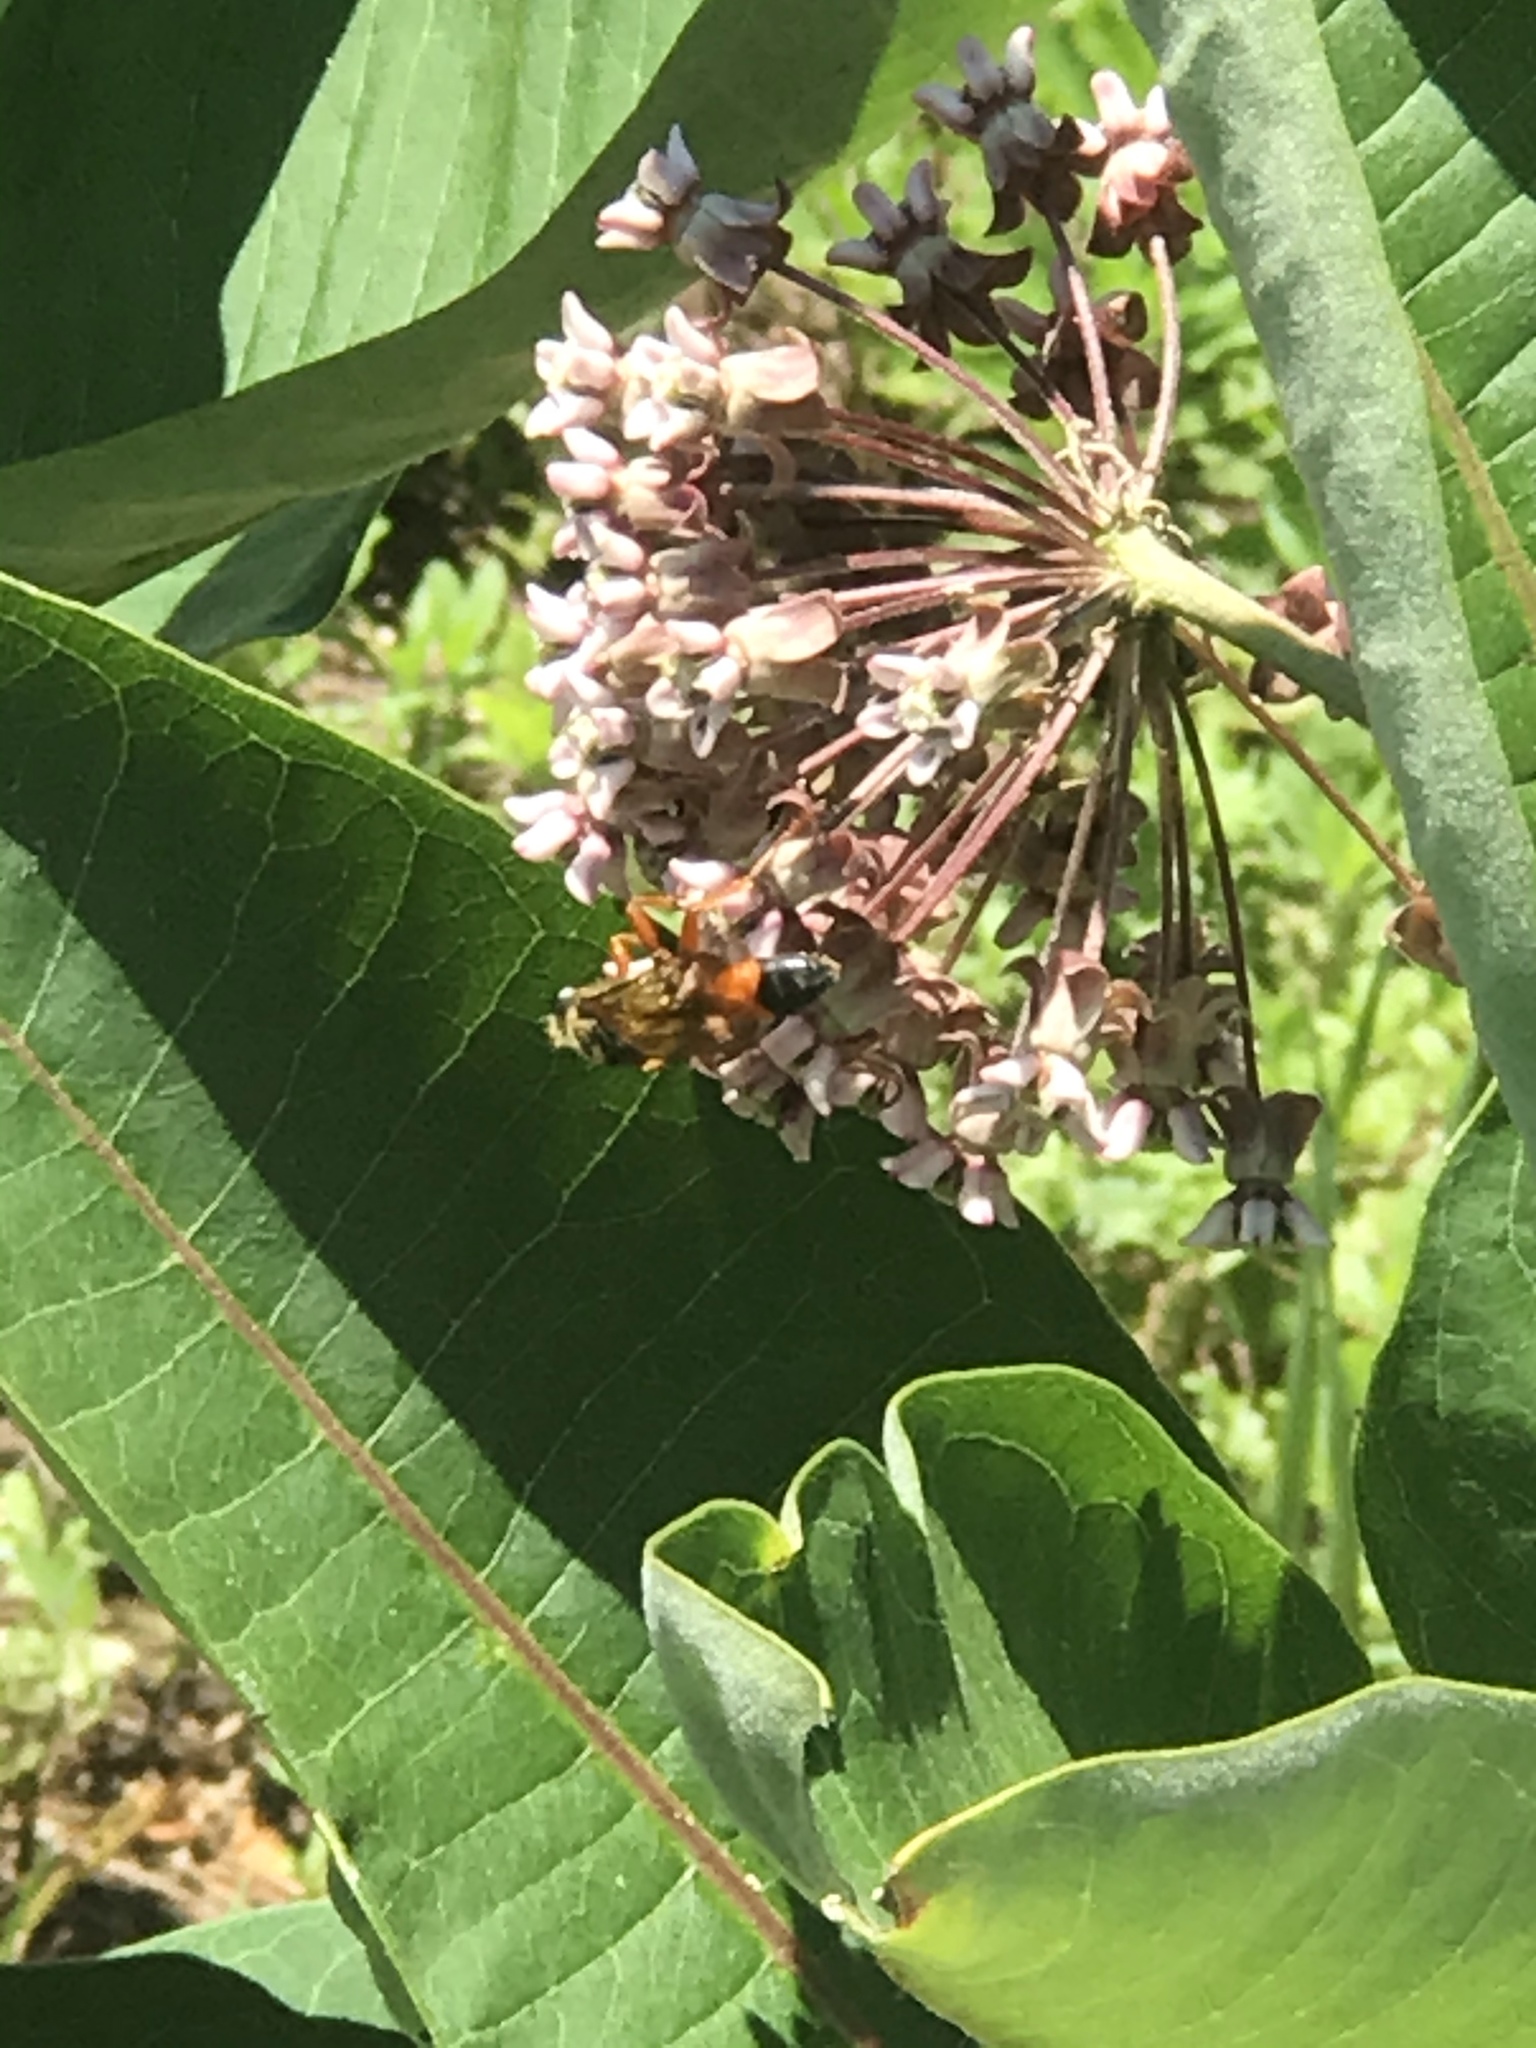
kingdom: Animalia
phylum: Arthropoda
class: Insecta
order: Hymenoptera
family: Sphecidae
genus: Sphex
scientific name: Sphex ichneumoneus
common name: Great golden digger wasp
